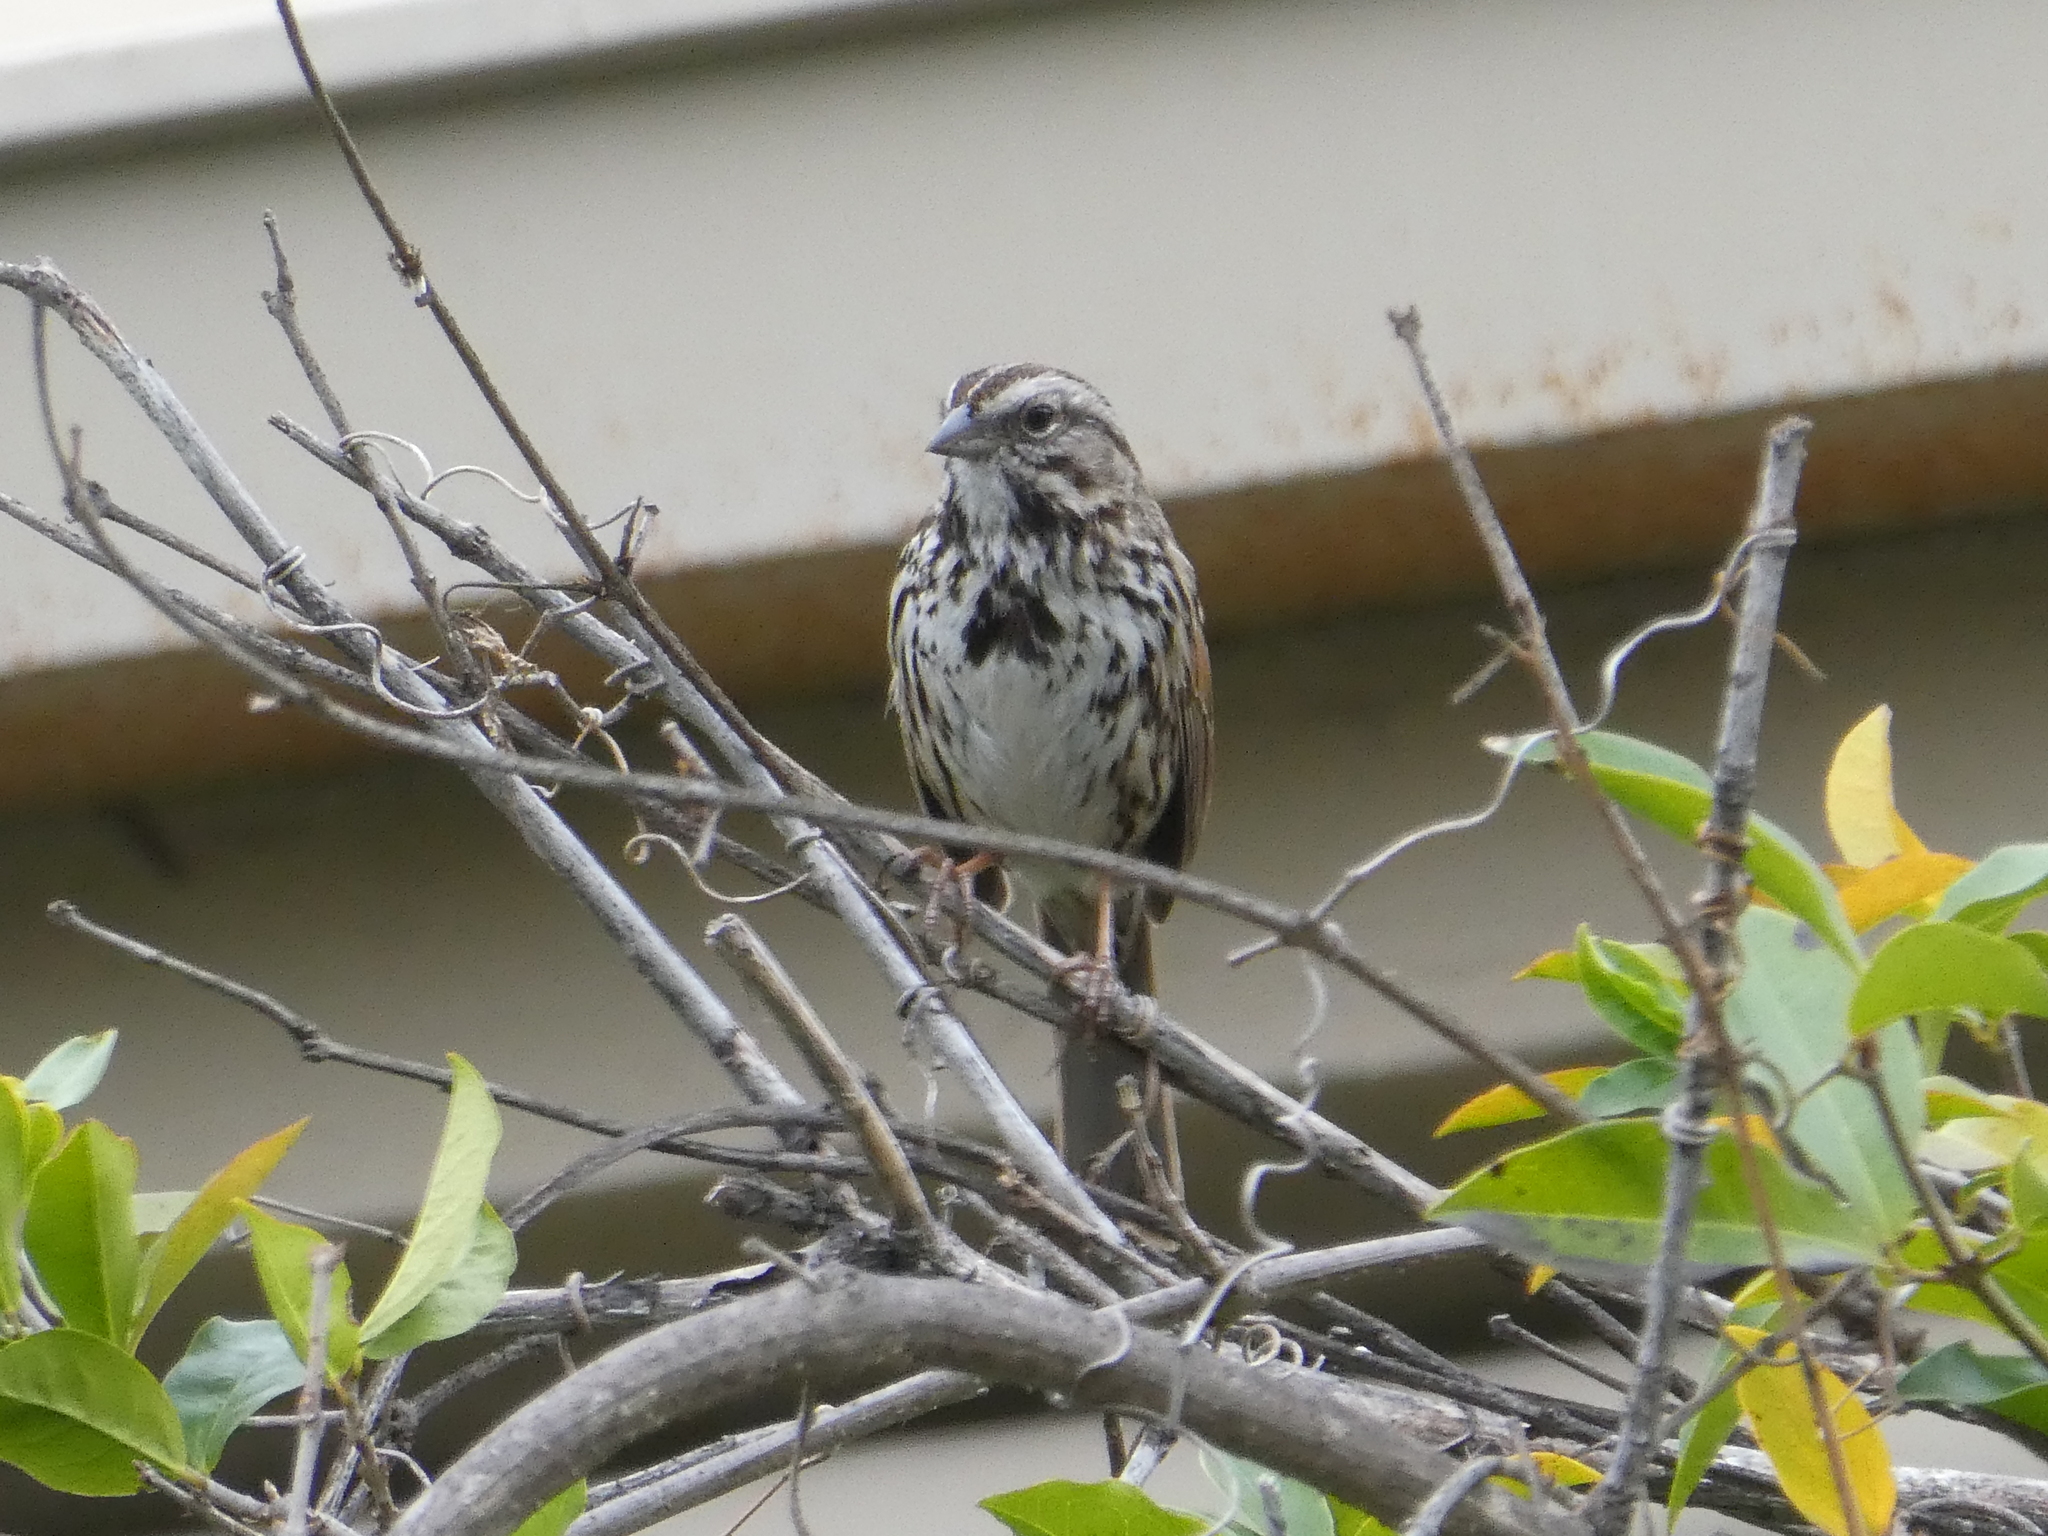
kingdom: Animalia
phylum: Chordata
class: Aves
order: Passeriformes
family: Passerellidae
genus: Melospiza
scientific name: Melospiza melodia
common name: Song sparrow
